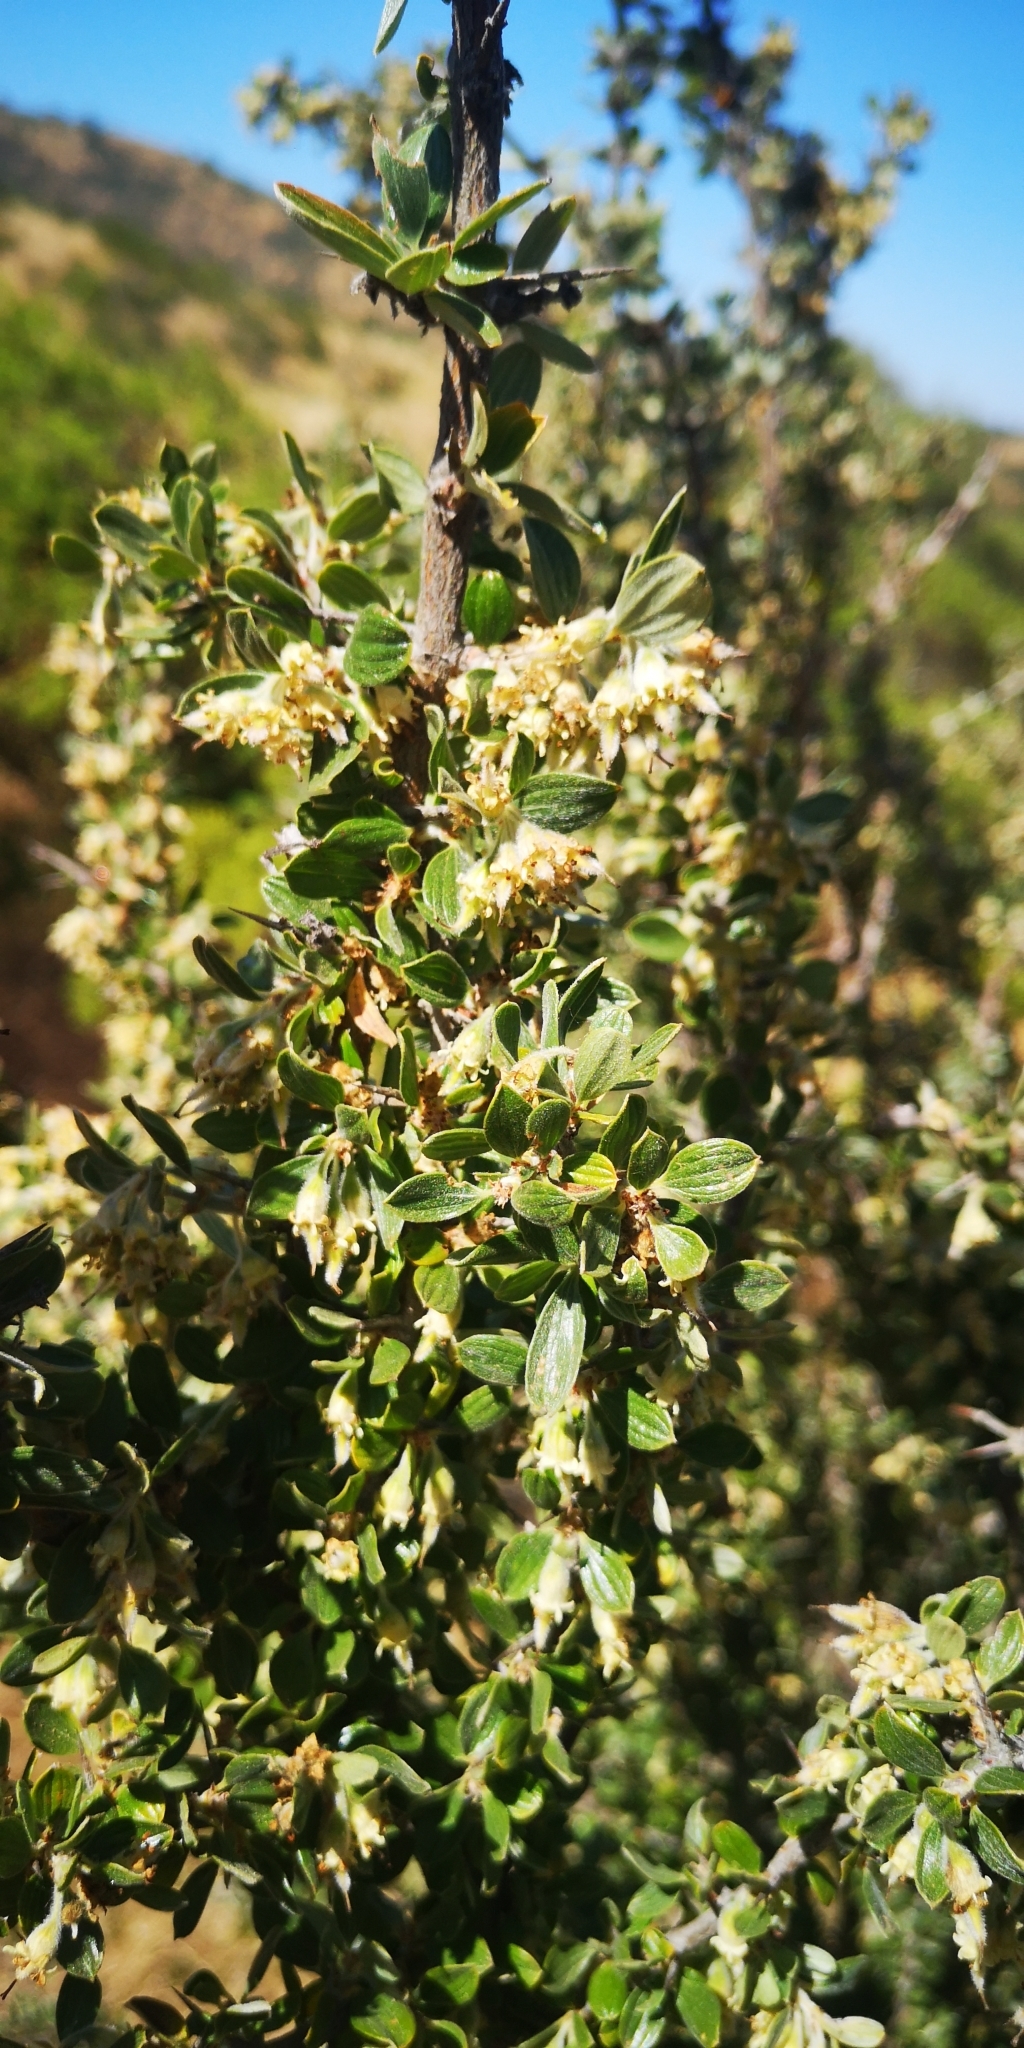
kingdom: Plantae
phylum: Tracheophyta
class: Magnoliopsida
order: Rosales
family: Rhamnaceae
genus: Trevoa
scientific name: Trevoa quinquenervia
